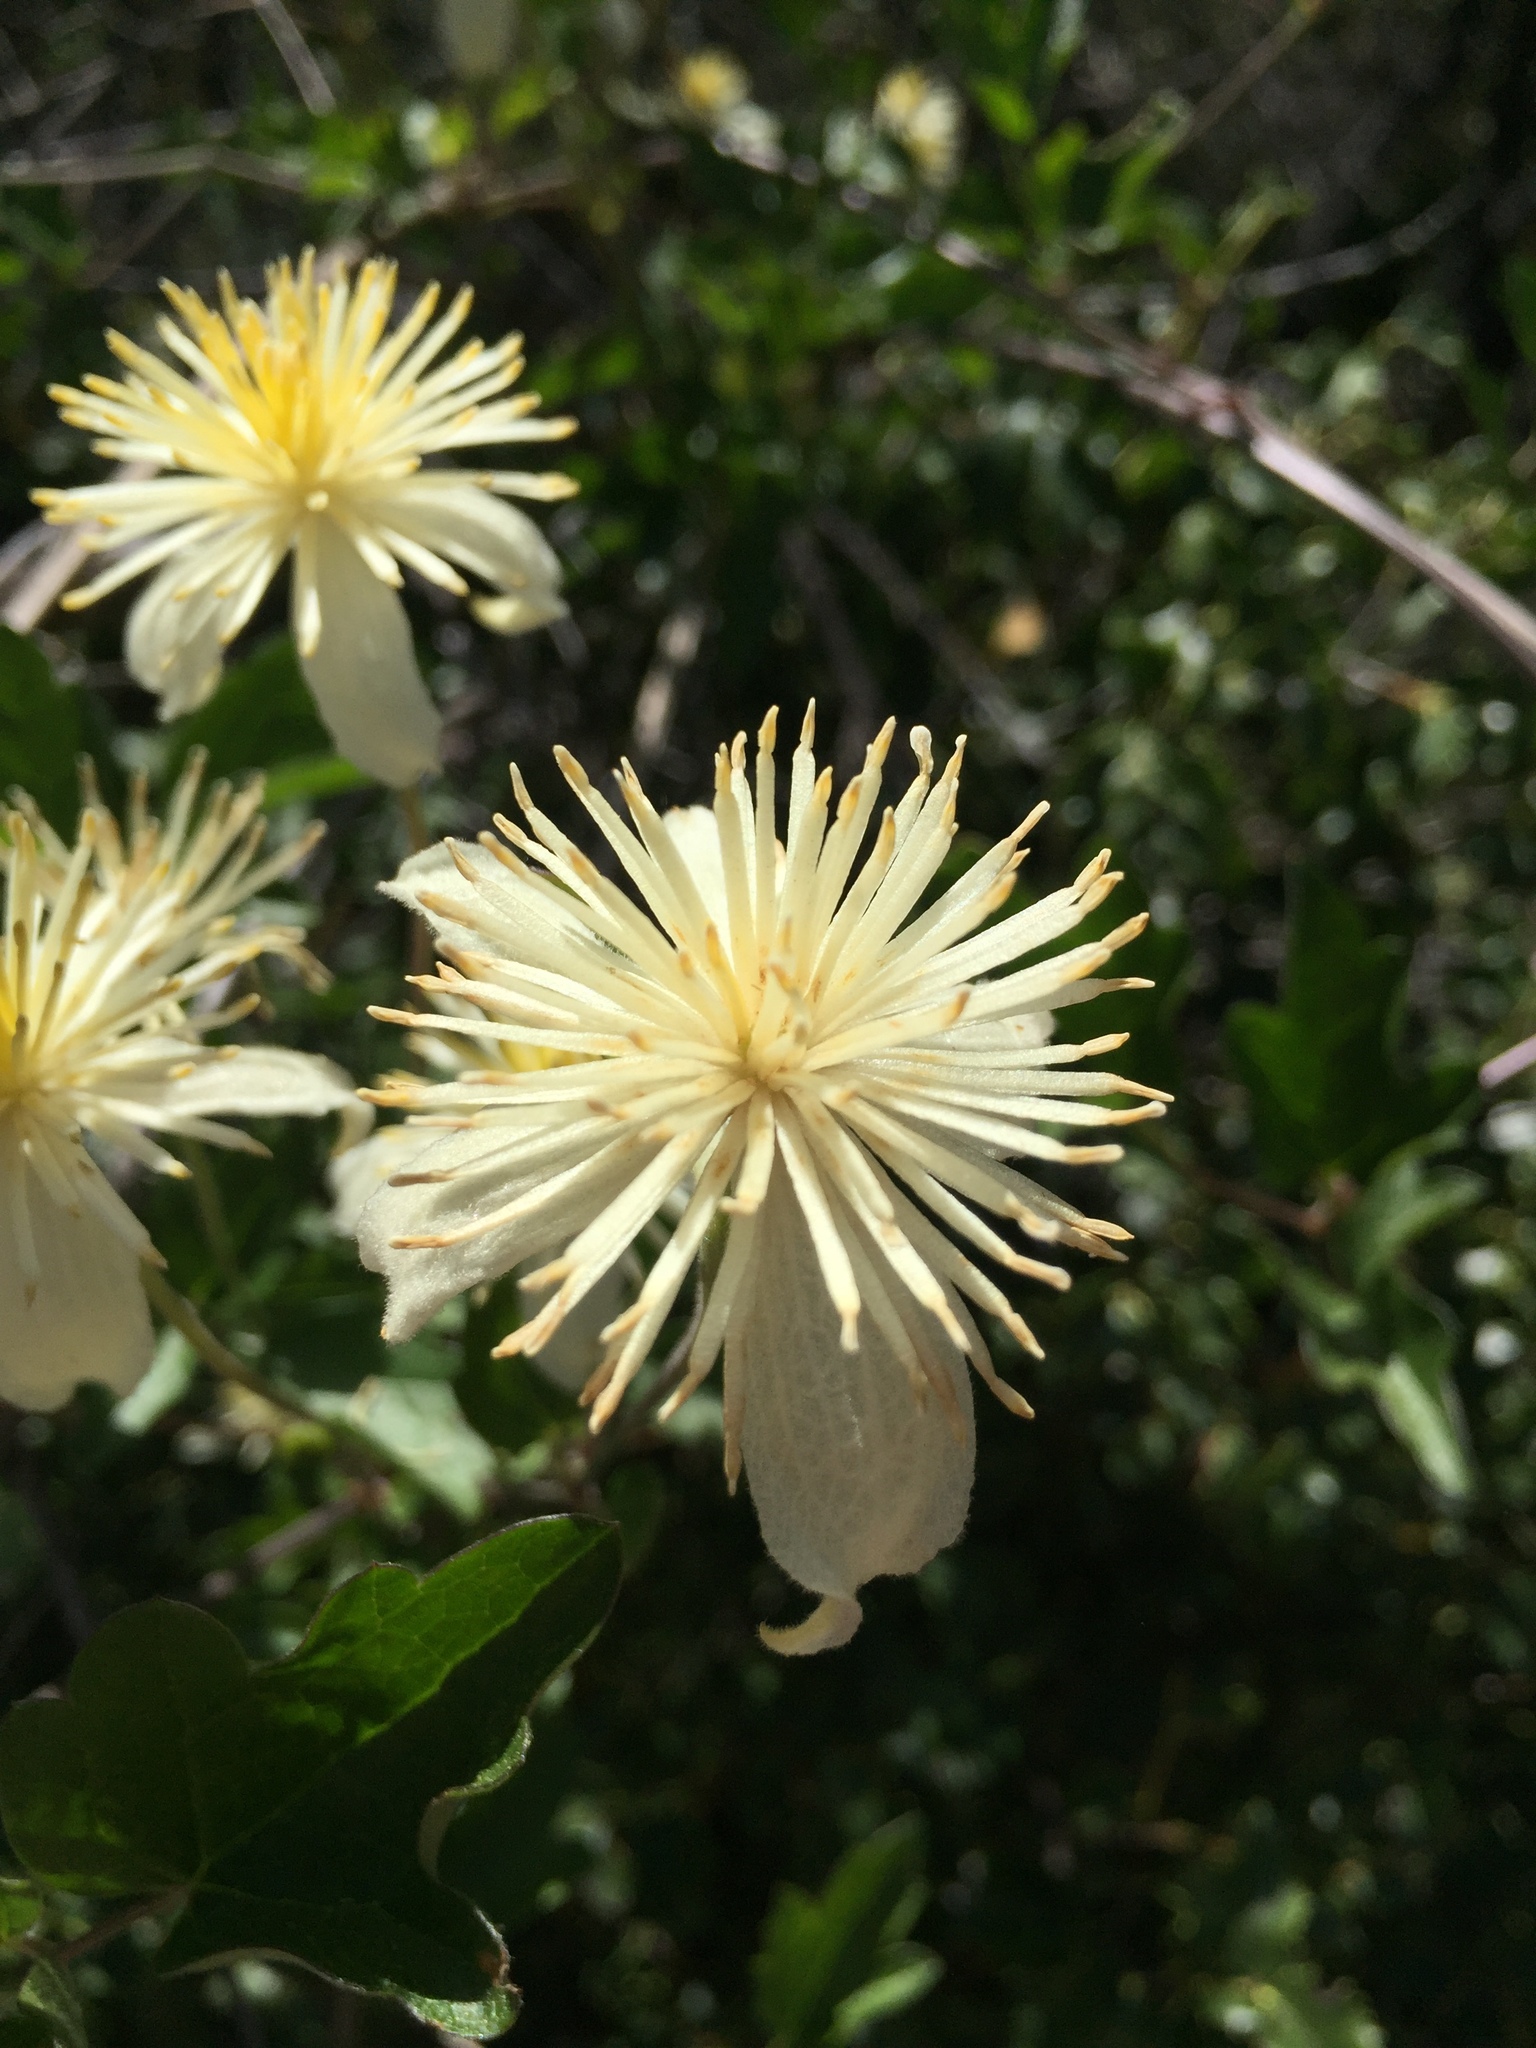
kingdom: Plantae
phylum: Tracheophyta
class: Magnoliopsida
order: Ranunculales
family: Ranunculaceae
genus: Clematis
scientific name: Clematis lasiantha
